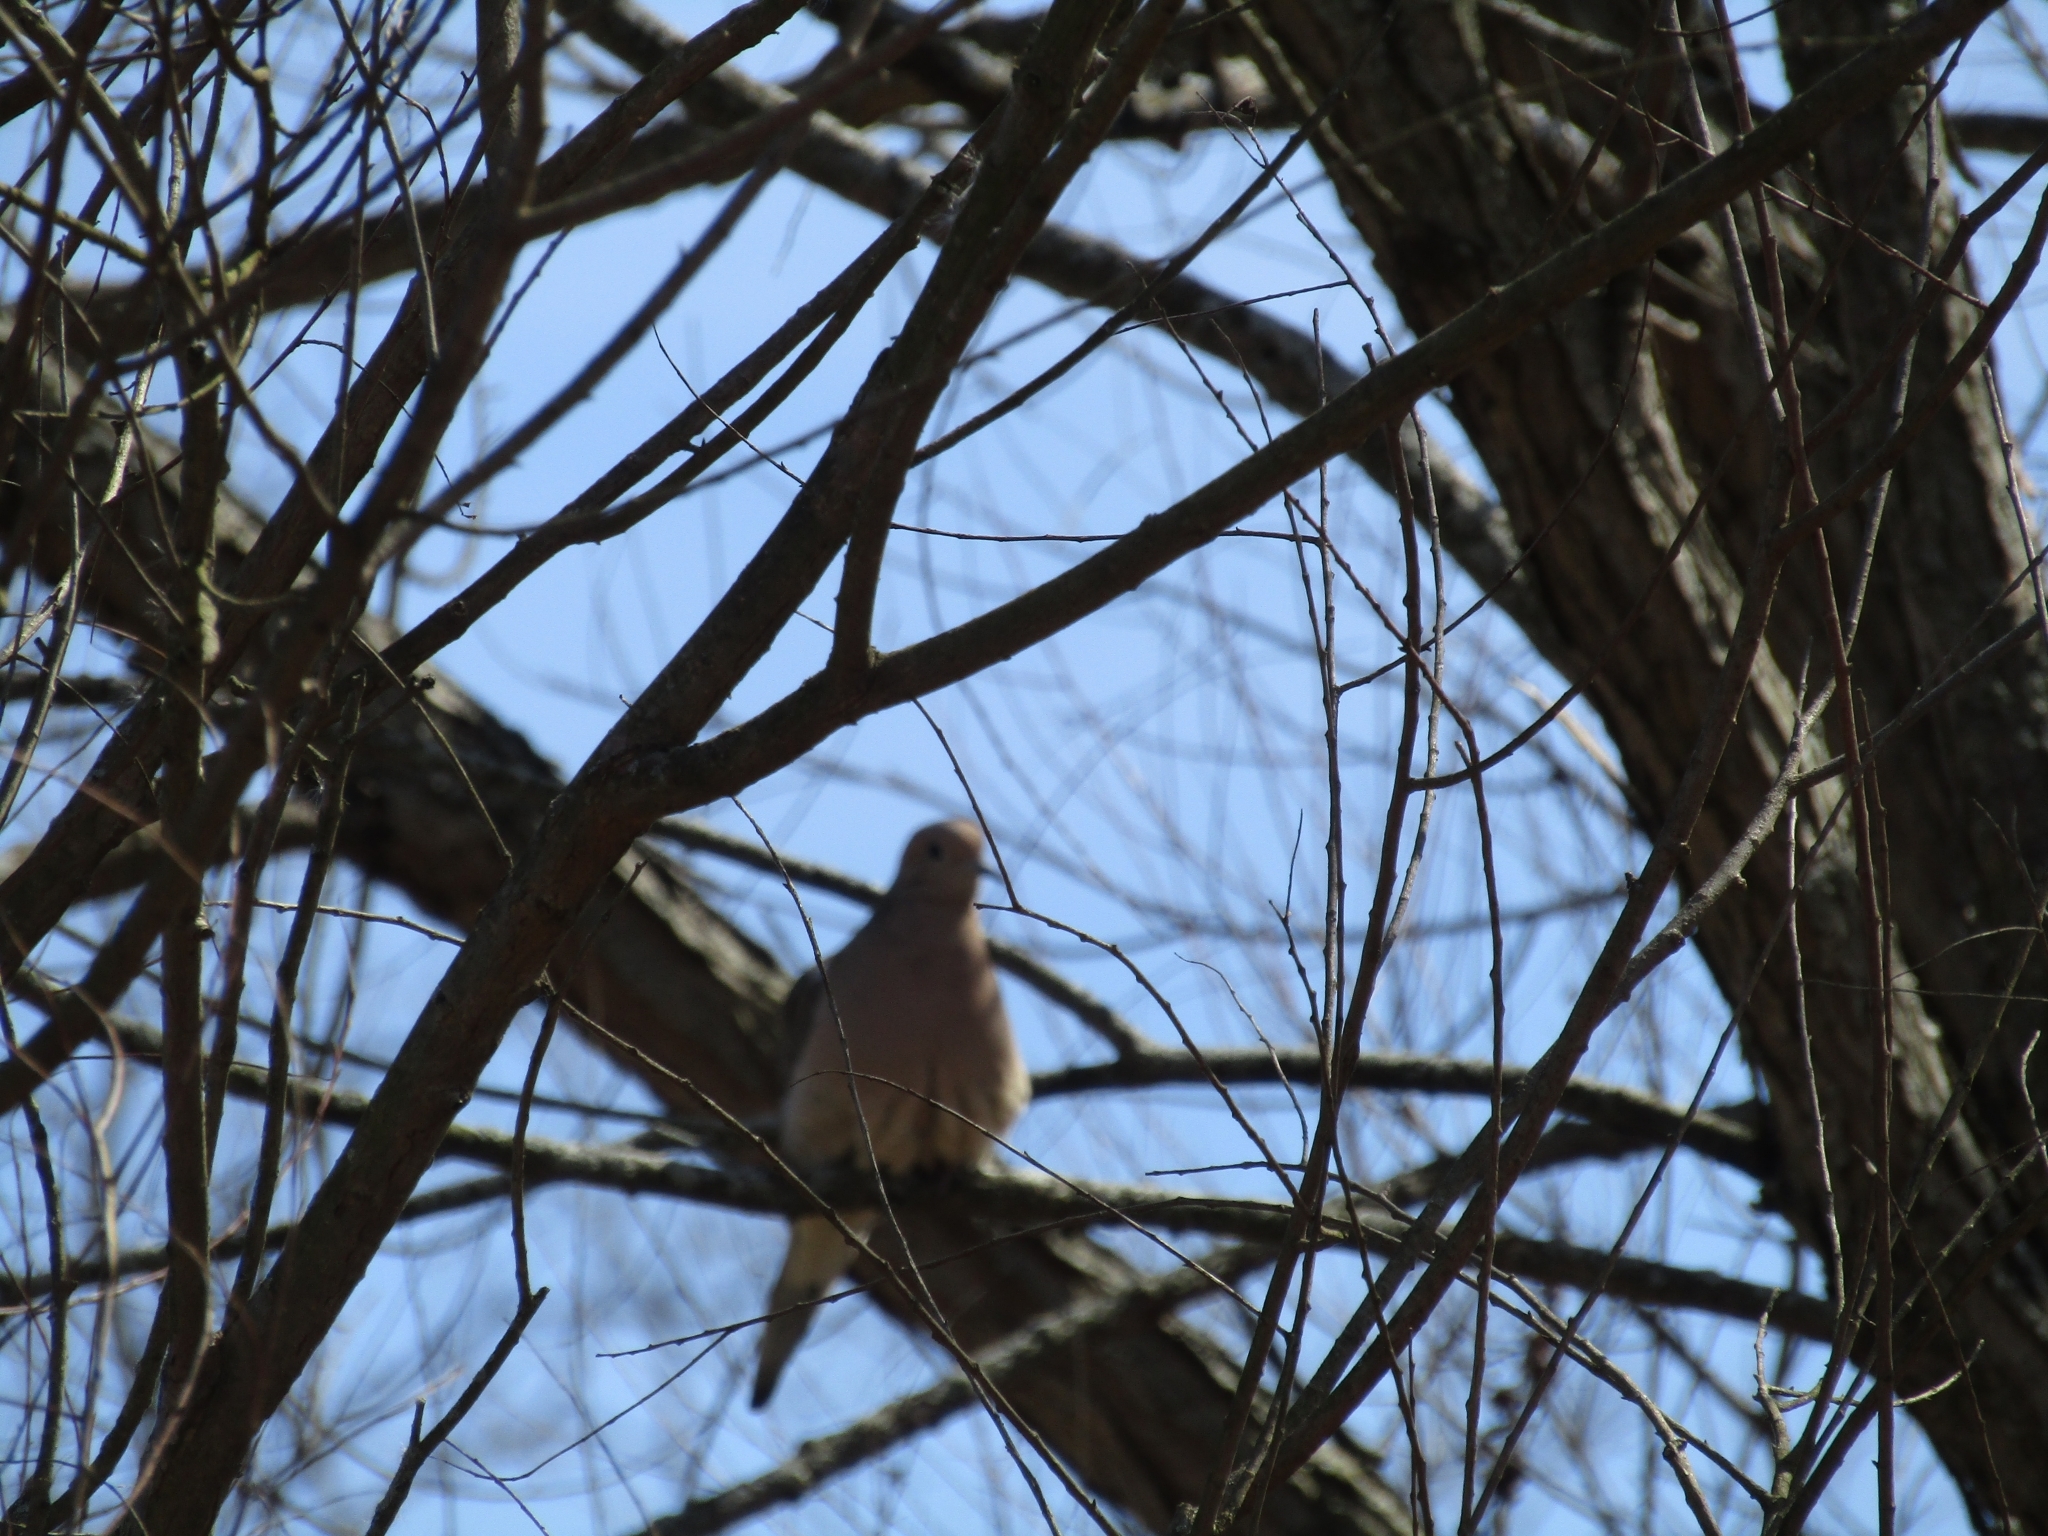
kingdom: Animalia
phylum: Chordata
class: Aves
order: Columbiformes
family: Columbidae
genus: Zenaida
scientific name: Zenaida macroura
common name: Mourning dove
